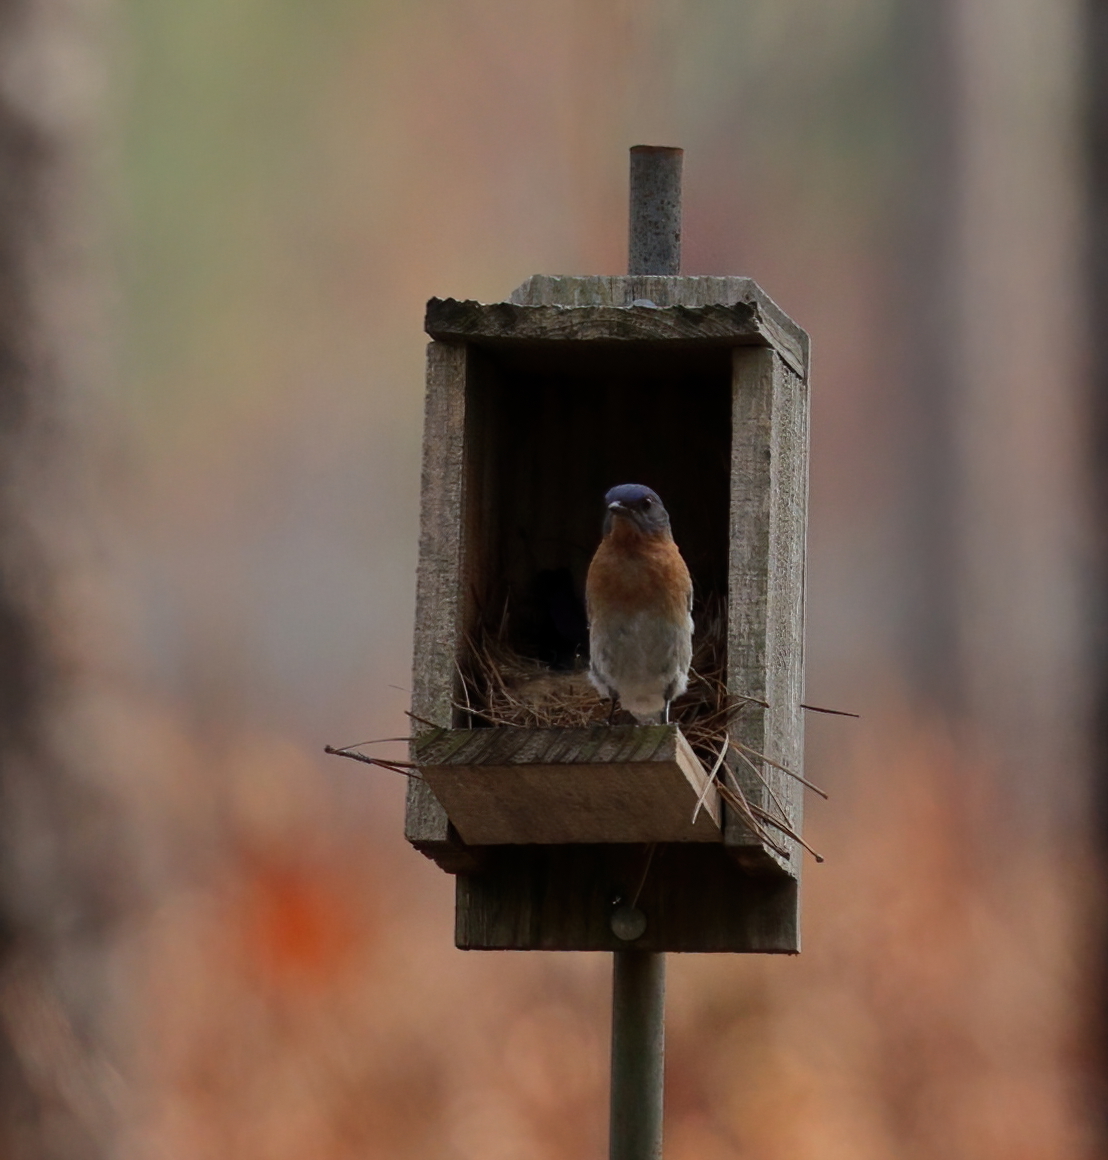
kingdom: Animalia
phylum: Chordata
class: Aves
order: Passeriformes
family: Turdidae
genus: Sialia
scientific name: Sialia sialis
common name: Eastern bluebird
